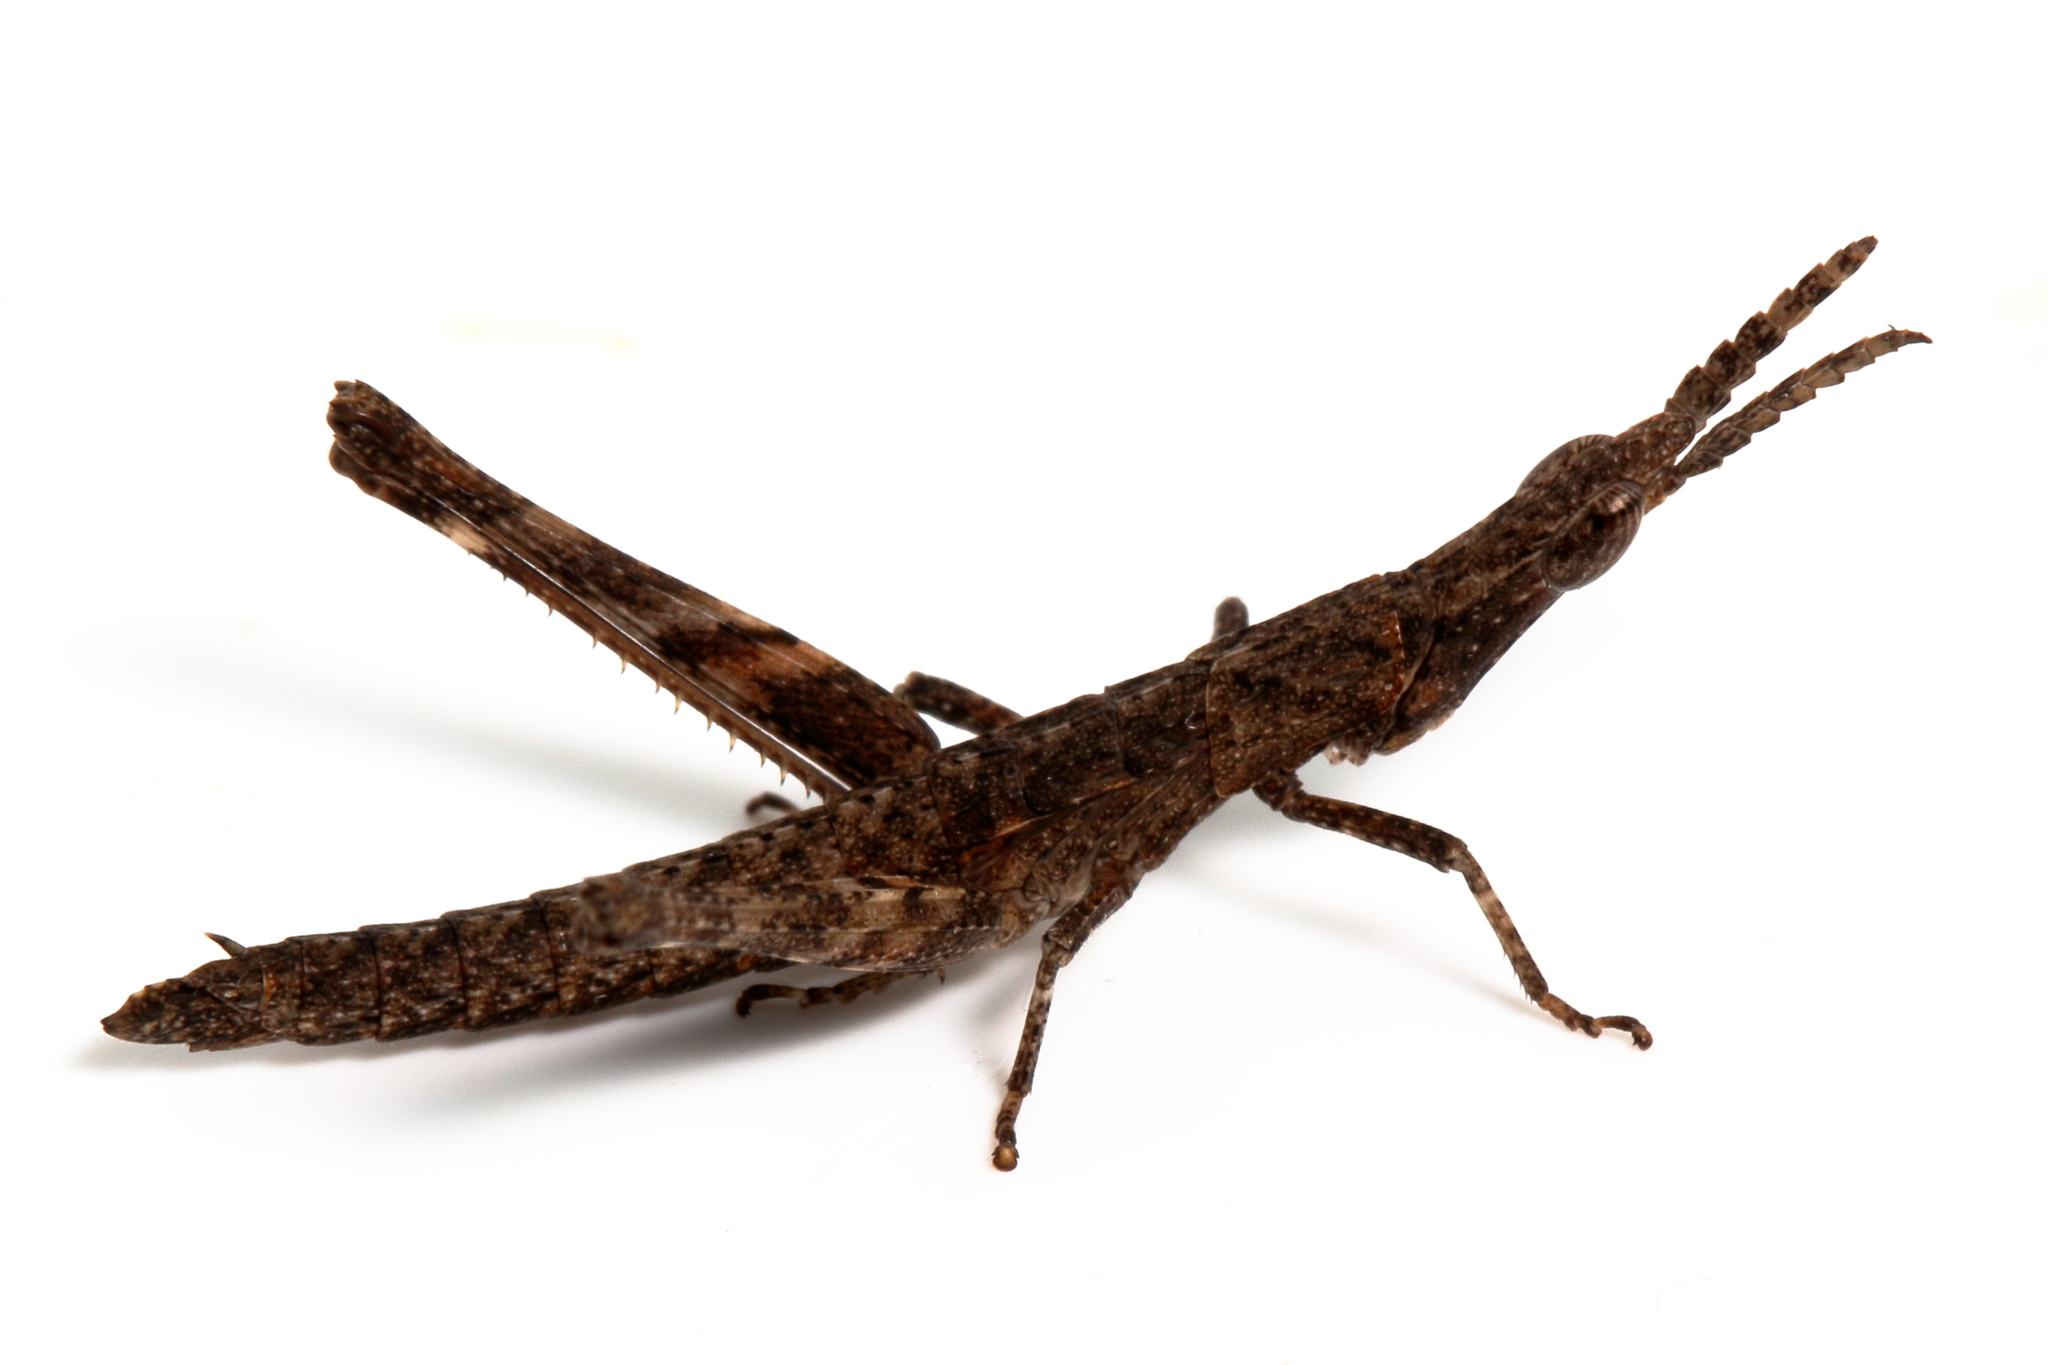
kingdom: Animalia
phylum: Arthropoda
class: Insecta
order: Orthoptera
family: Morabidae
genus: Vandiemenella
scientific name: Vandiemenella viatica
